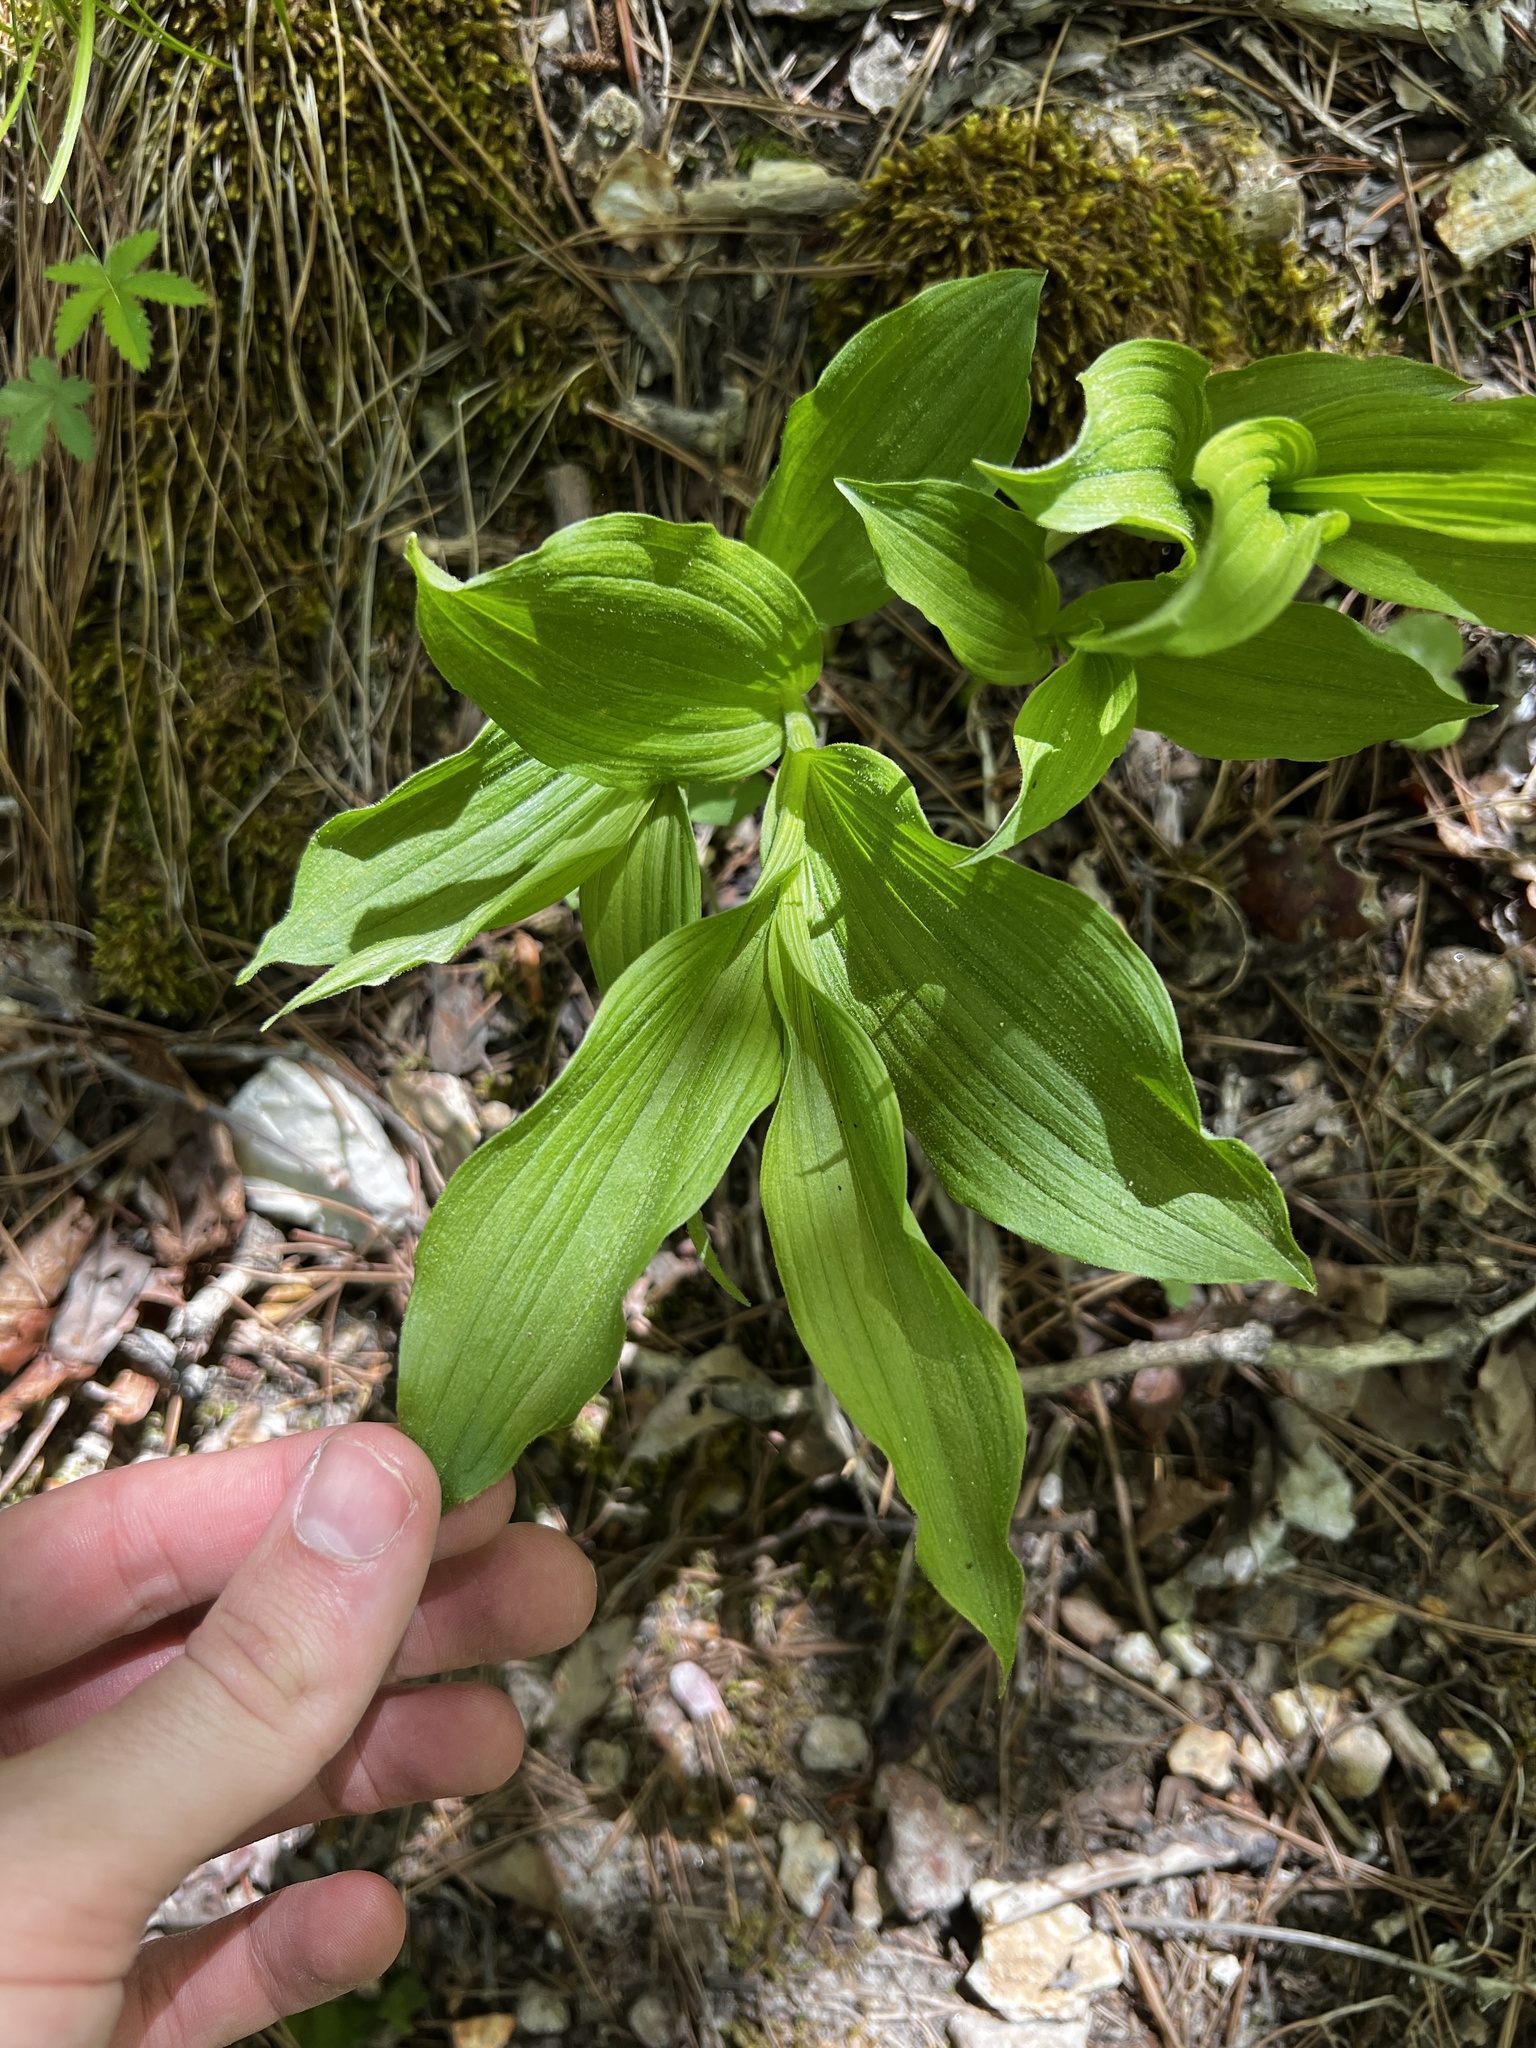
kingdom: Plantae
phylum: Tracheophyta
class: Liliopsida
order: Asparagales
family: Orchidaceae
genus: Cypripedium
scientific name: Cypripedium parviflorum
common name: American yellow lady's-slipper
